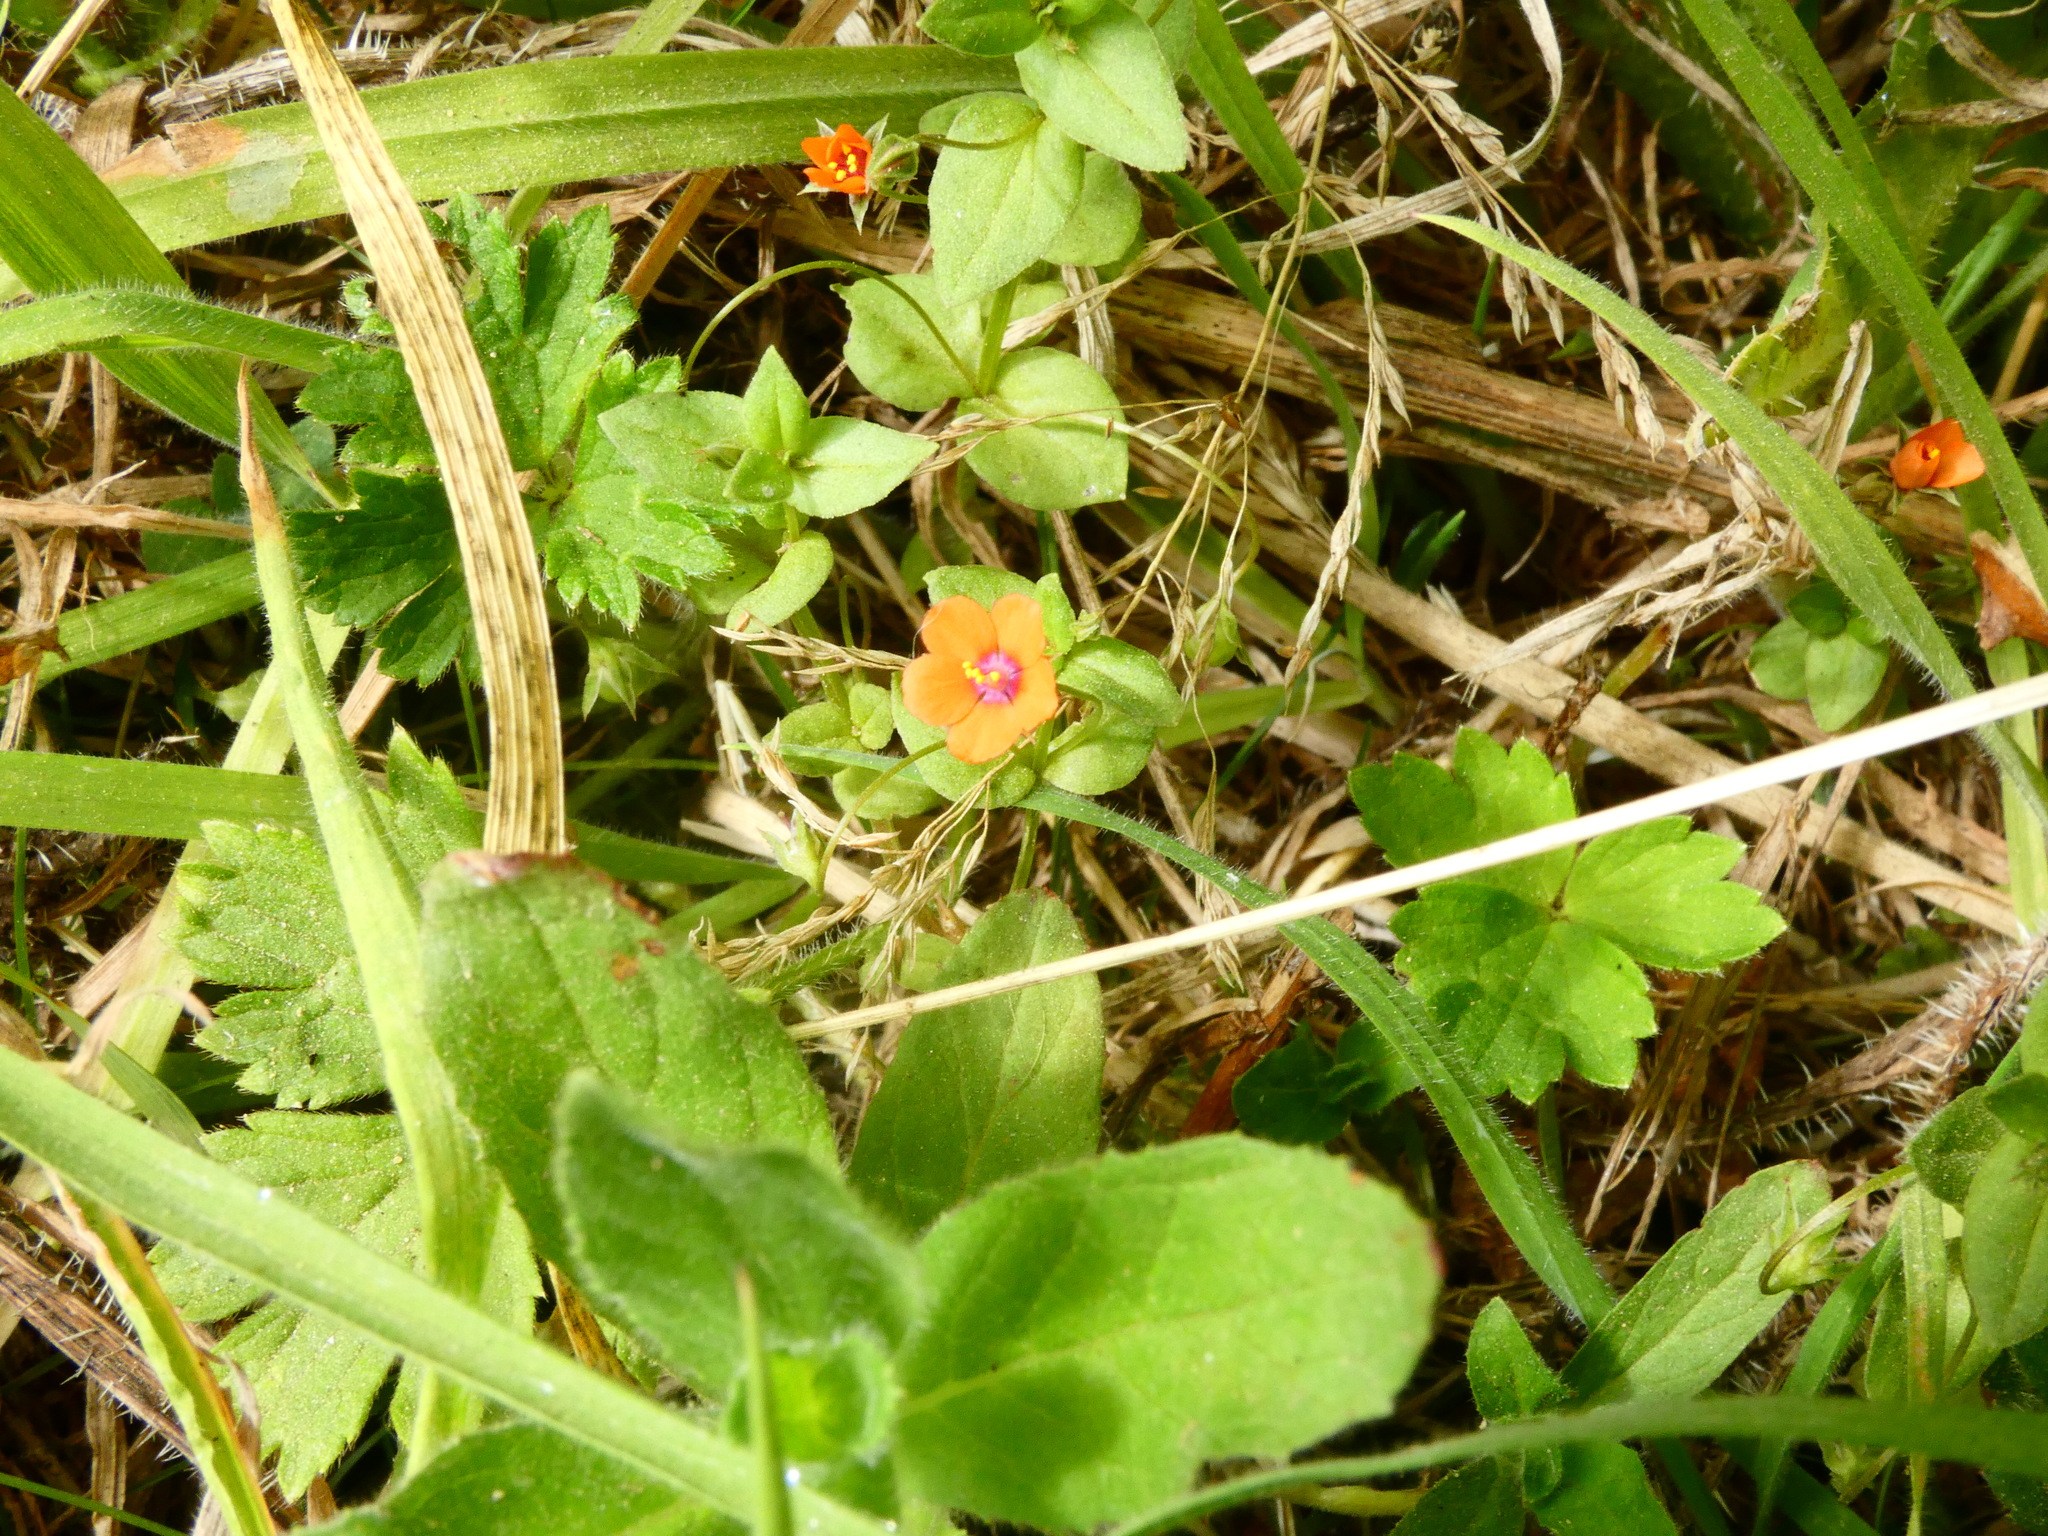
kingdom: Plantae
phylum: Tracheophyta
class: Magnoliopsida
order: Ericales
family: Primulaceae
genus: Lysimachia
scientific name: Lysimachia arvensis
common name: Scarlet pimpernel
